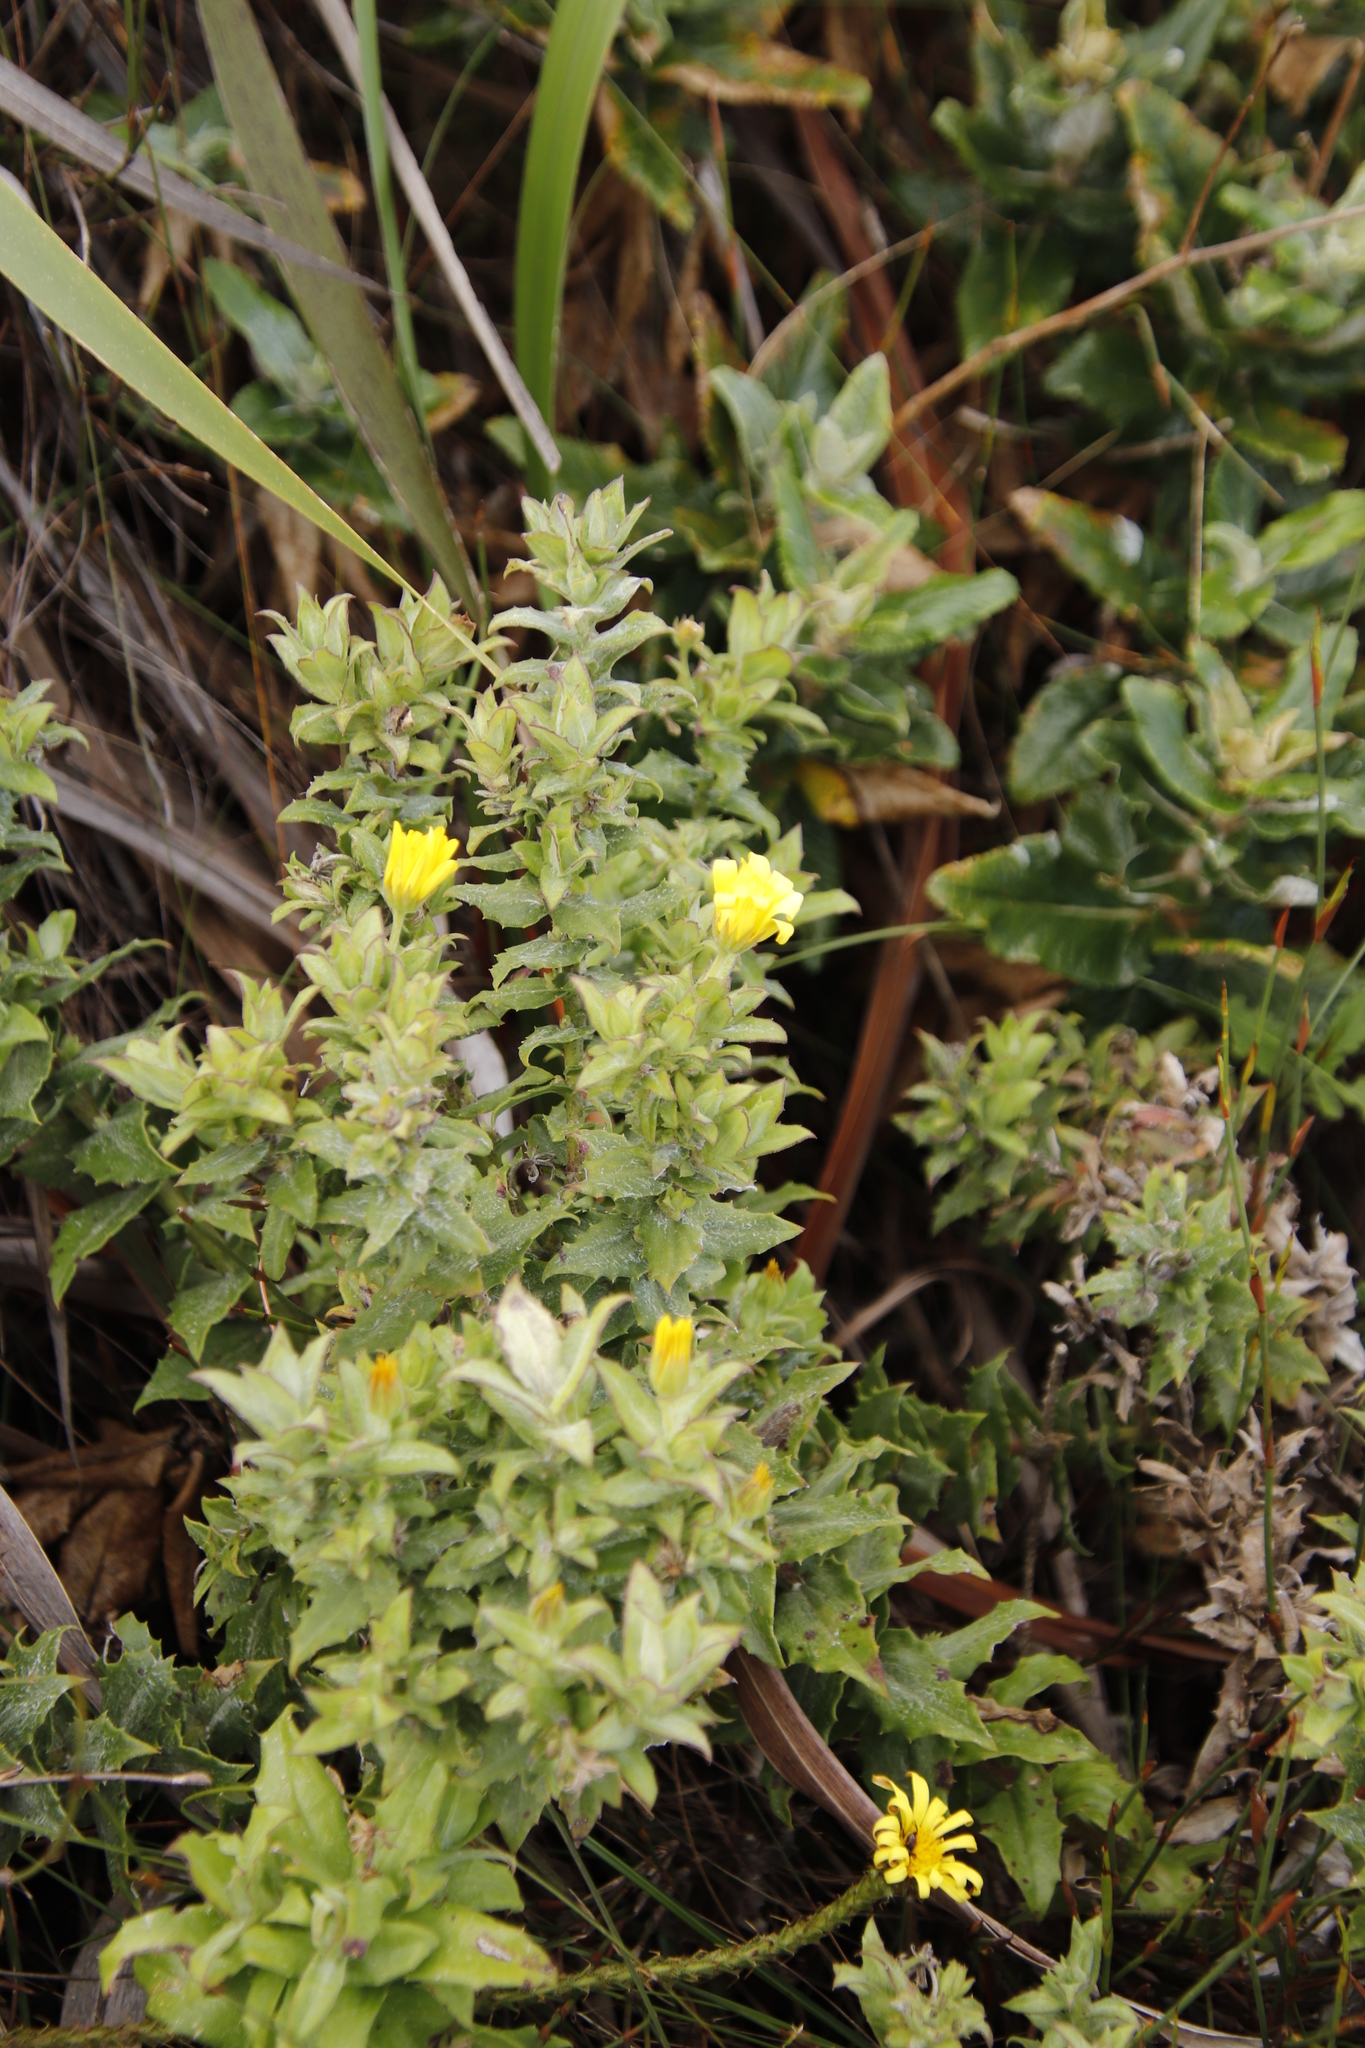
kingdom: Plantae
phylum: Tracheophyta
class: Magnoliopsida
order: Asterales
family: Asteraceae
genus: Osteospermum
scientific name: Osteospermum ilicifolium
